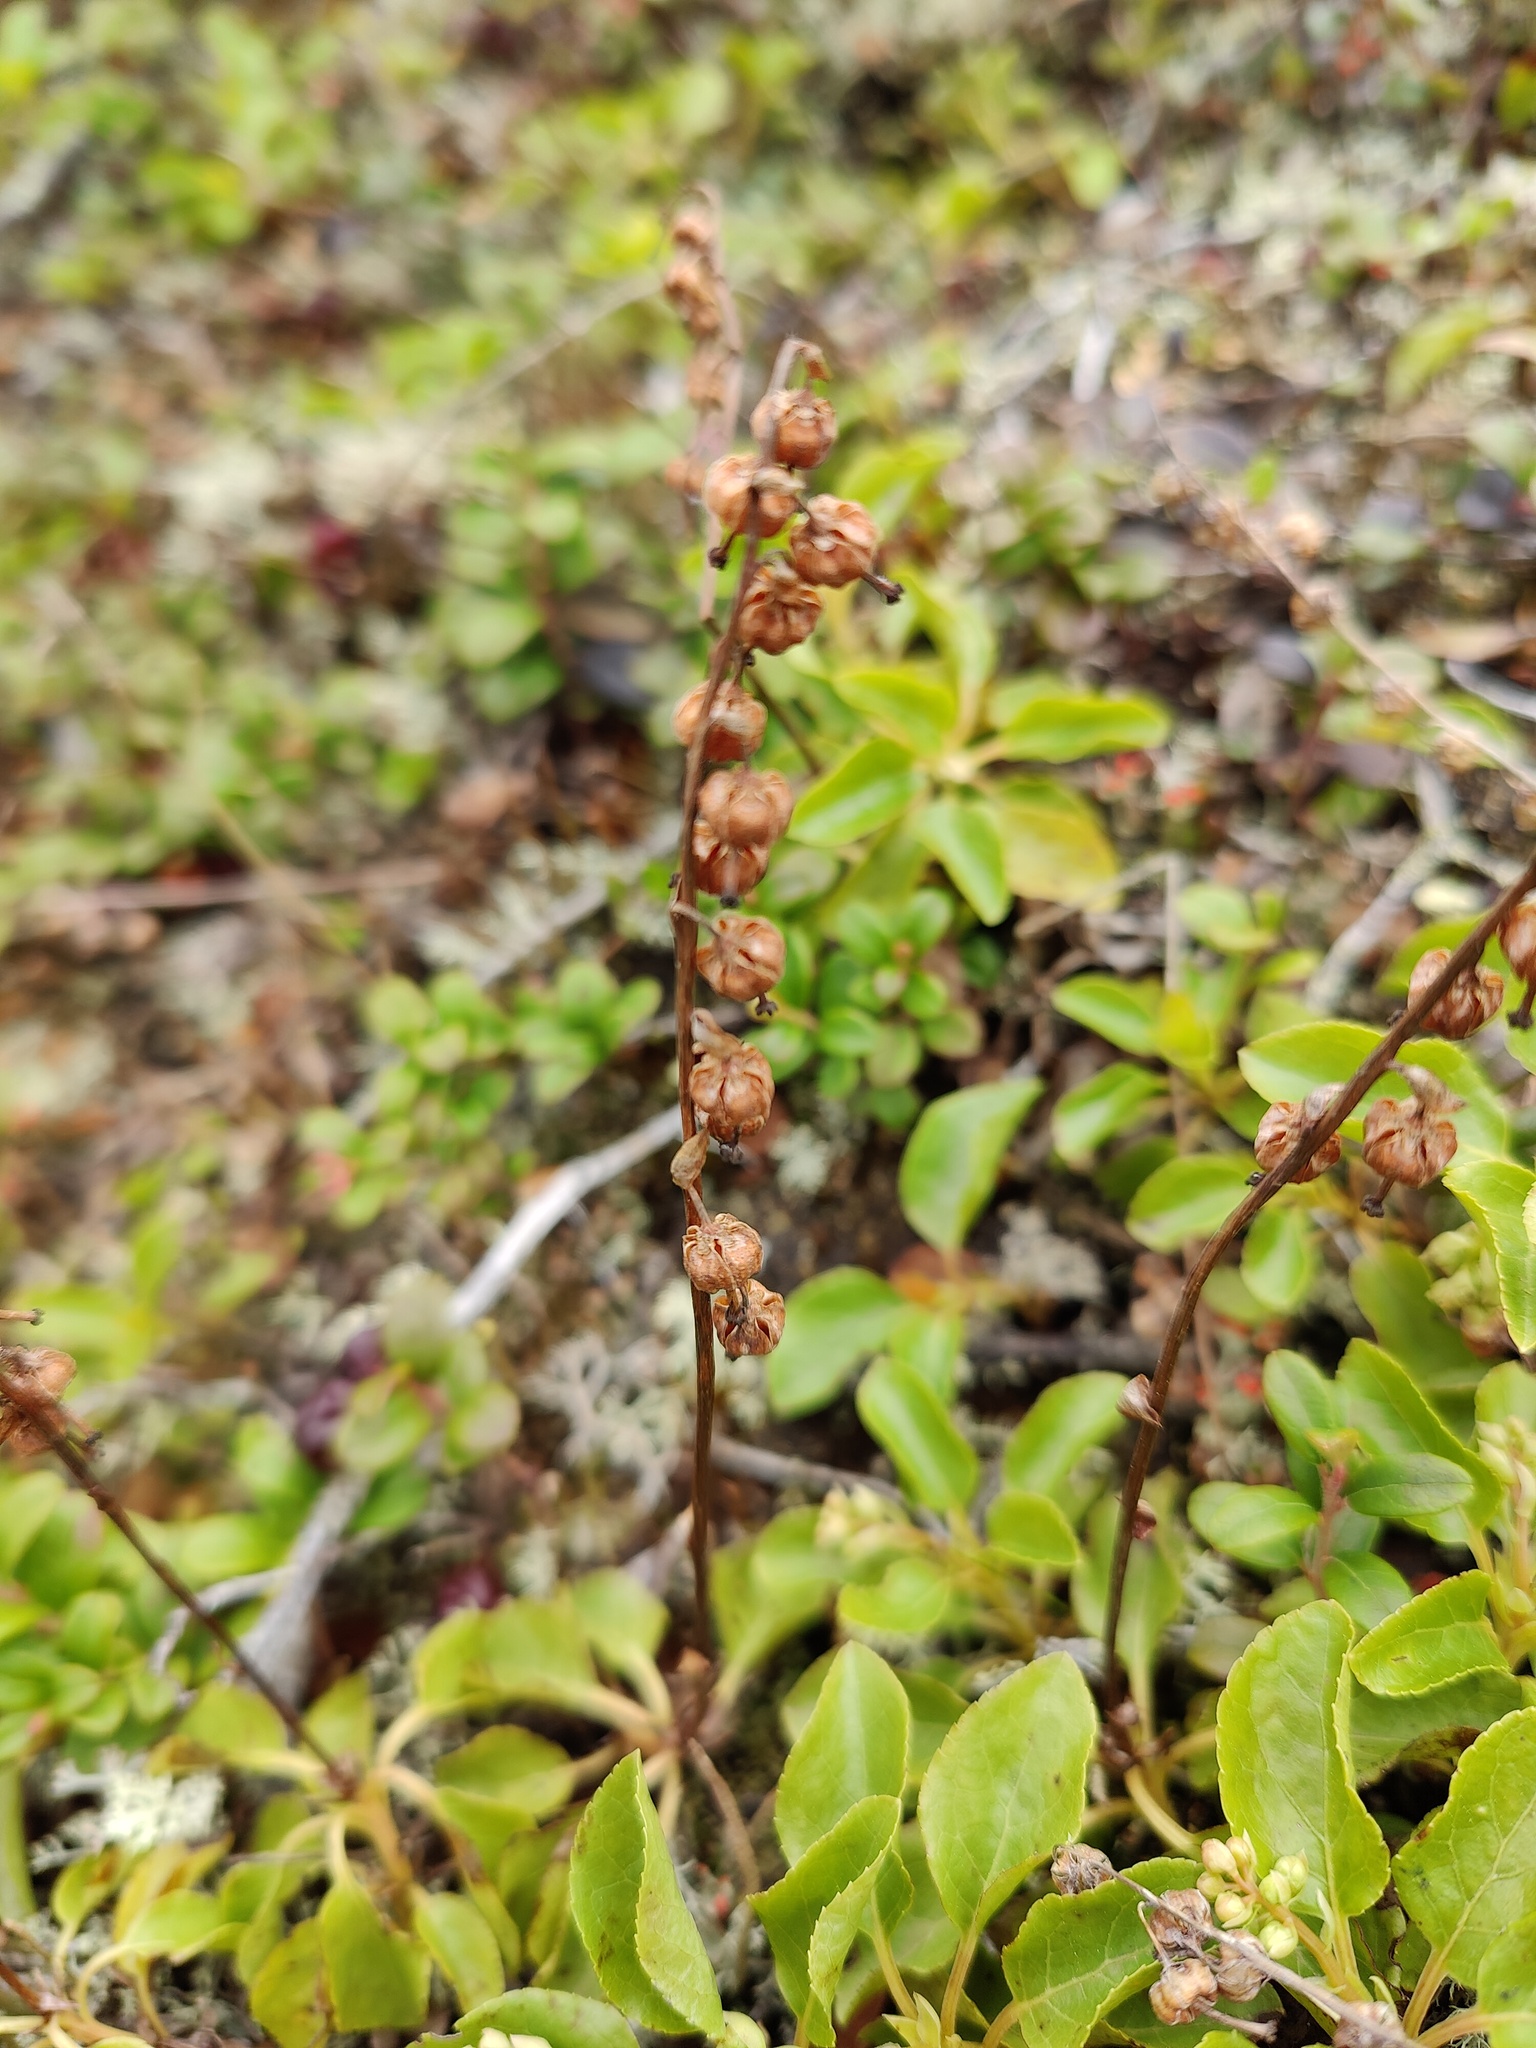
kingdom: Plantae
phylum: Tracheophyta
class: Magnoliopsida
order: Ericales
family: Ericaceae
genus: Orthilia
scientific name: Orthilia secunda
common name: One-sided orthilia
